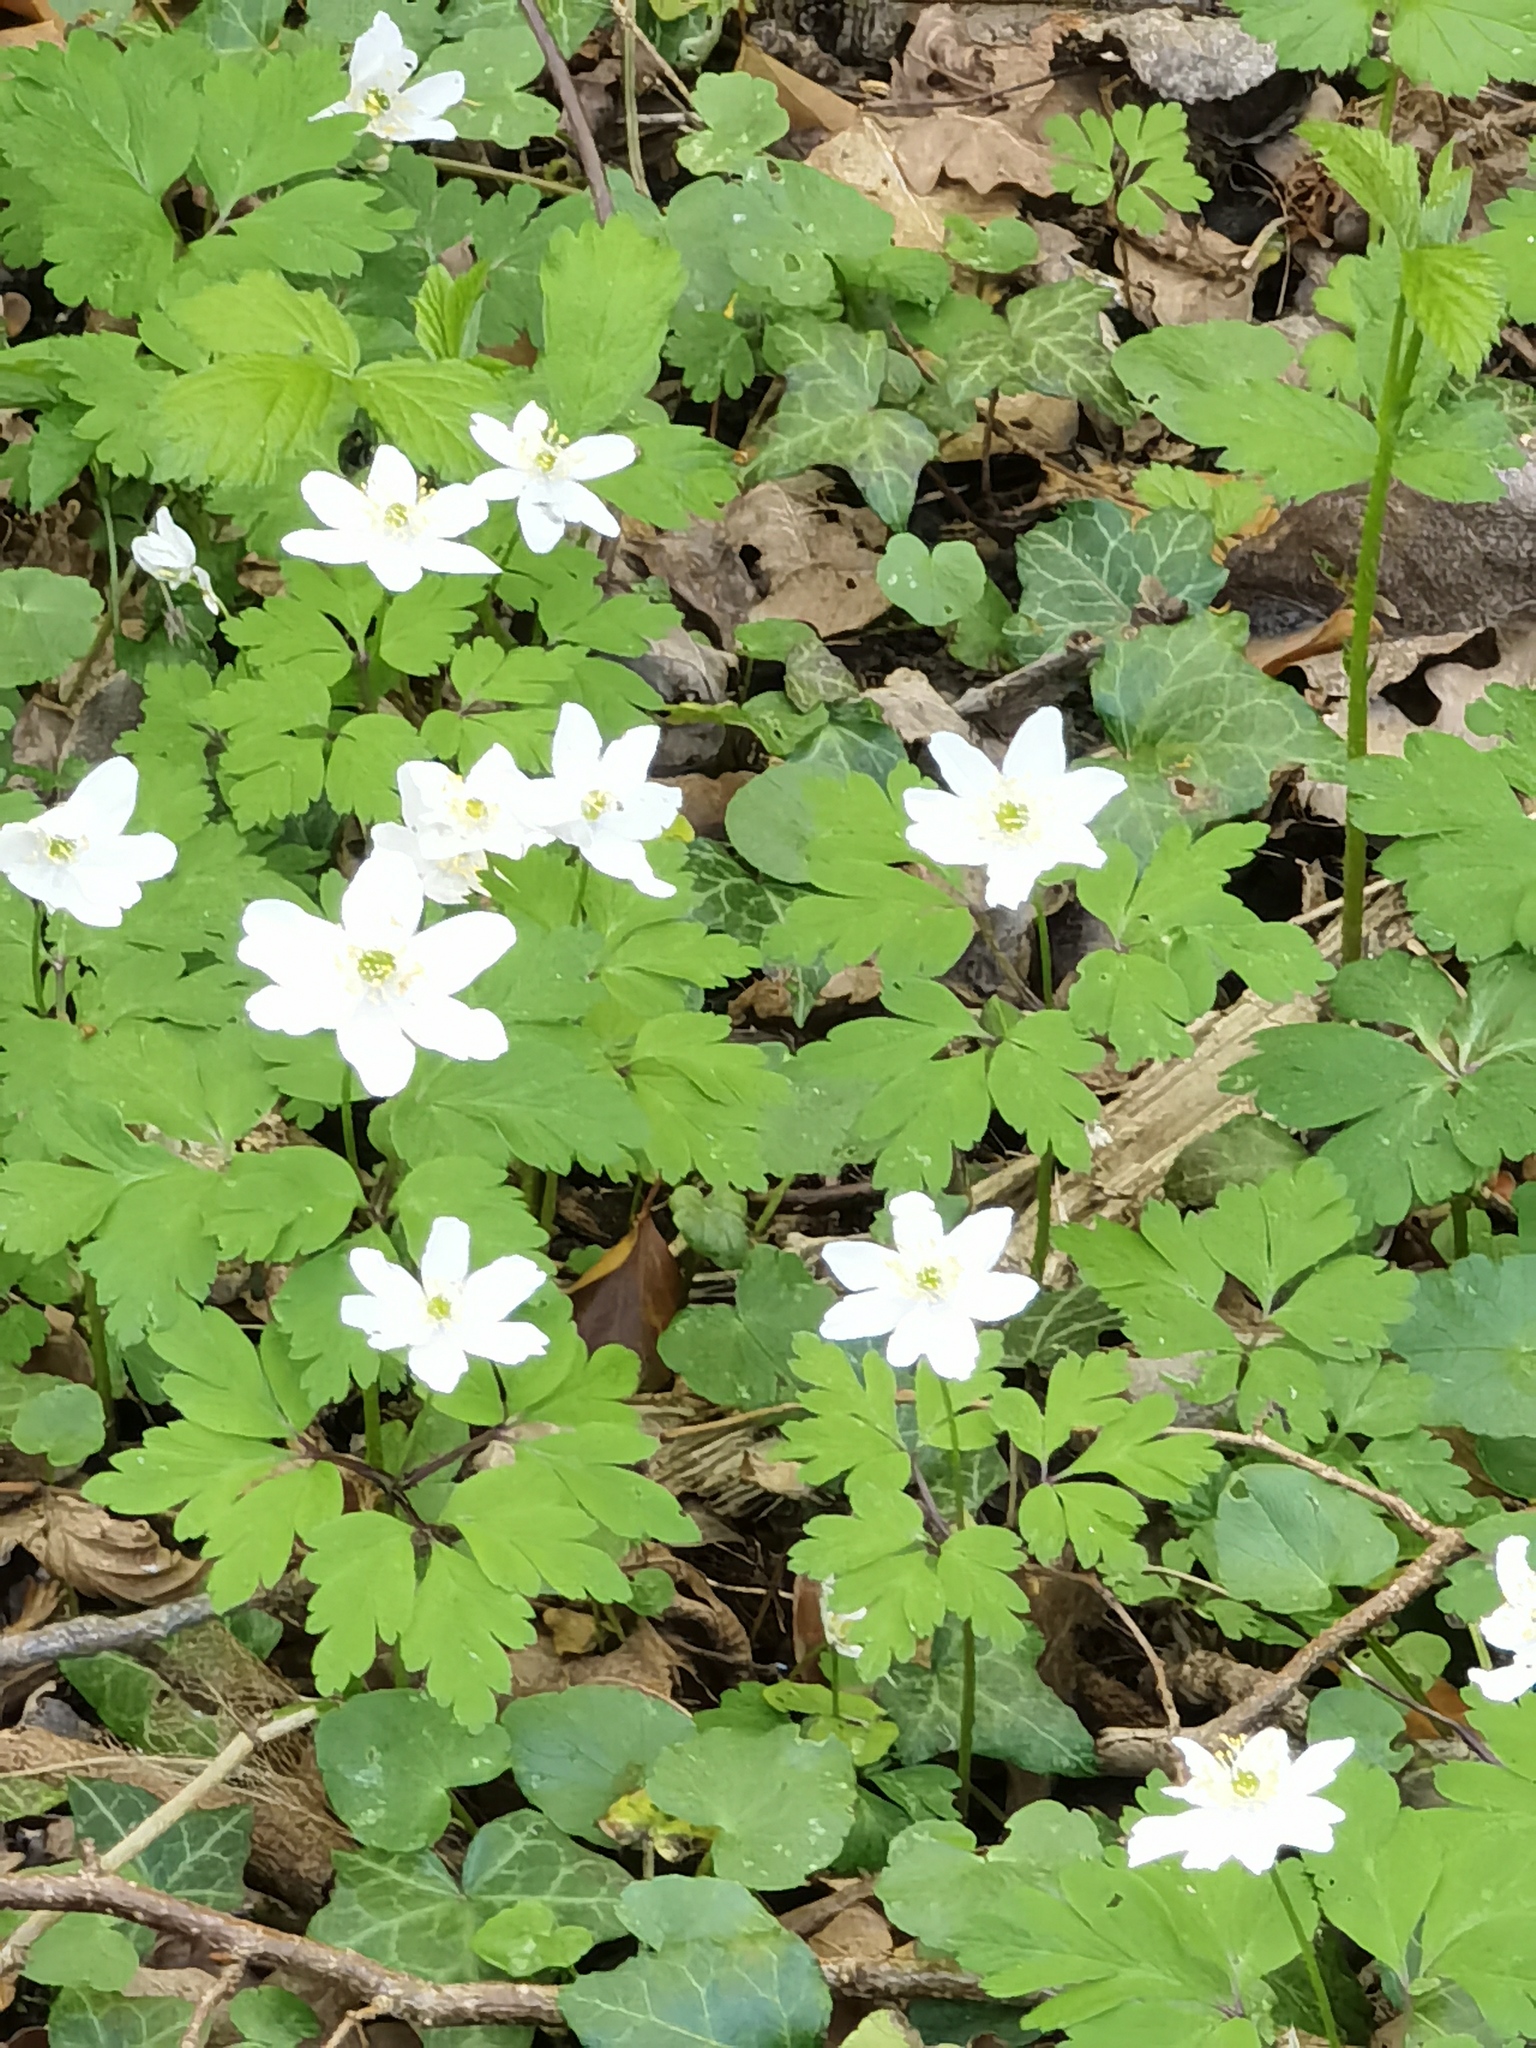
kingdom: Plantae
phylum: Tracheophyta
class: Magnoliopsida
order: Ranunculales
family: Ranunculaceae
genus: Anemone
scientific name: Anemone nemorosa
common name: Wood anemone
